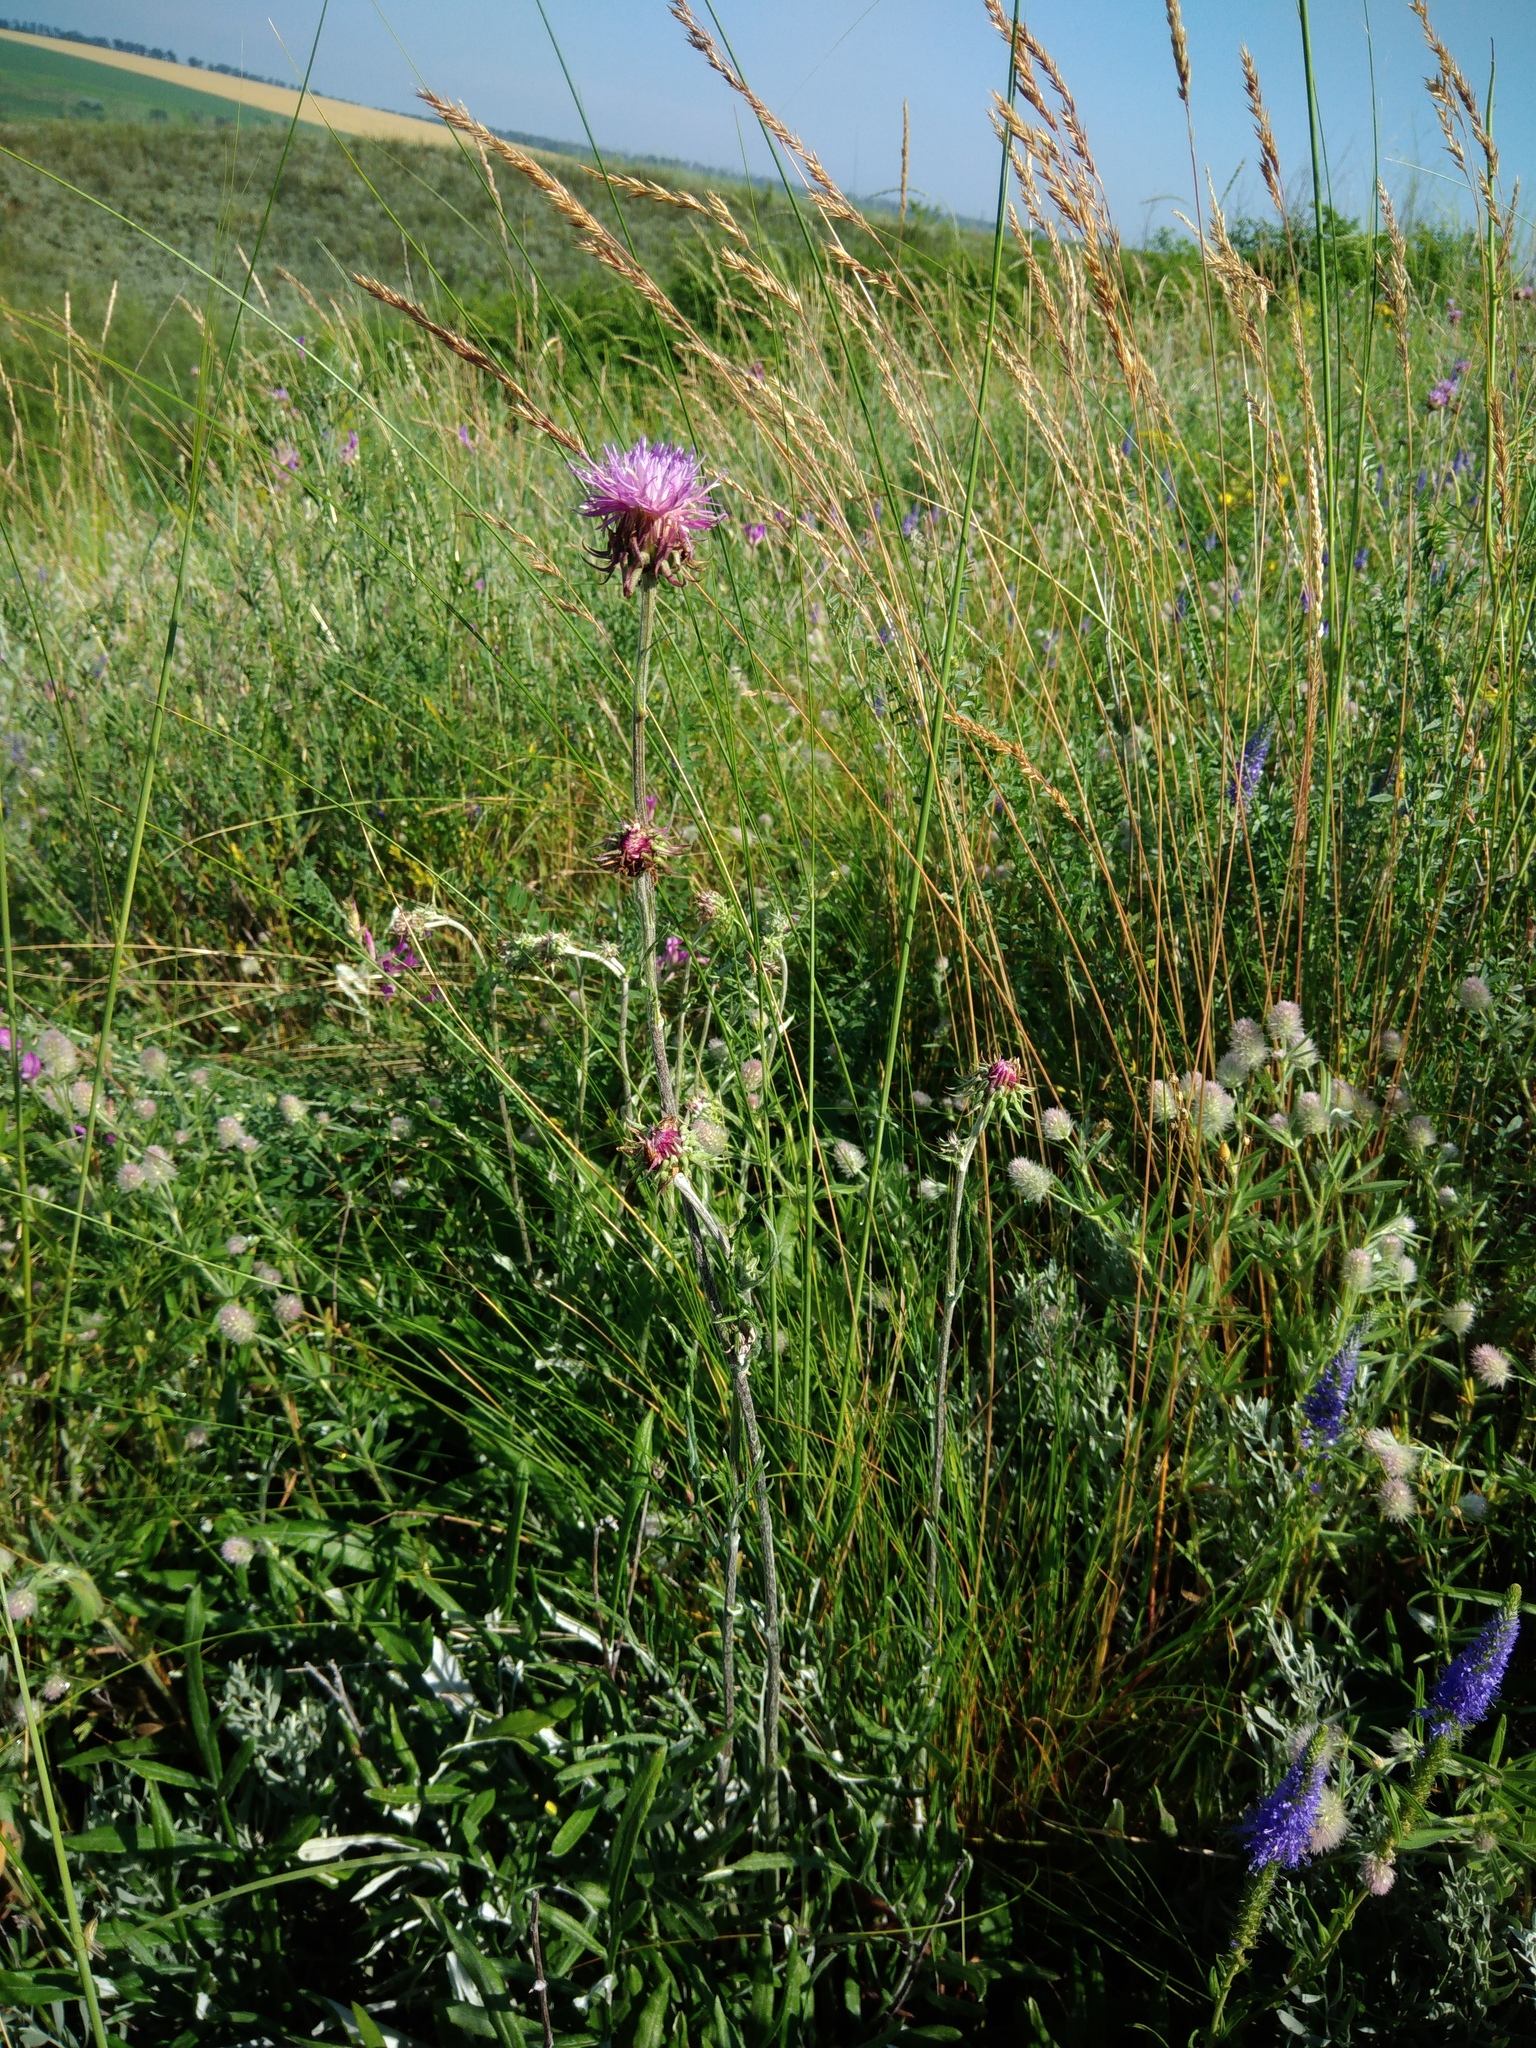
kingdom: Plantae
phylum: Tracheophyta
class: Magnoliopsida
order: Asterales
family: Asteraceae
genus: Jurinea
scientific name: Jurinea cyanoides
